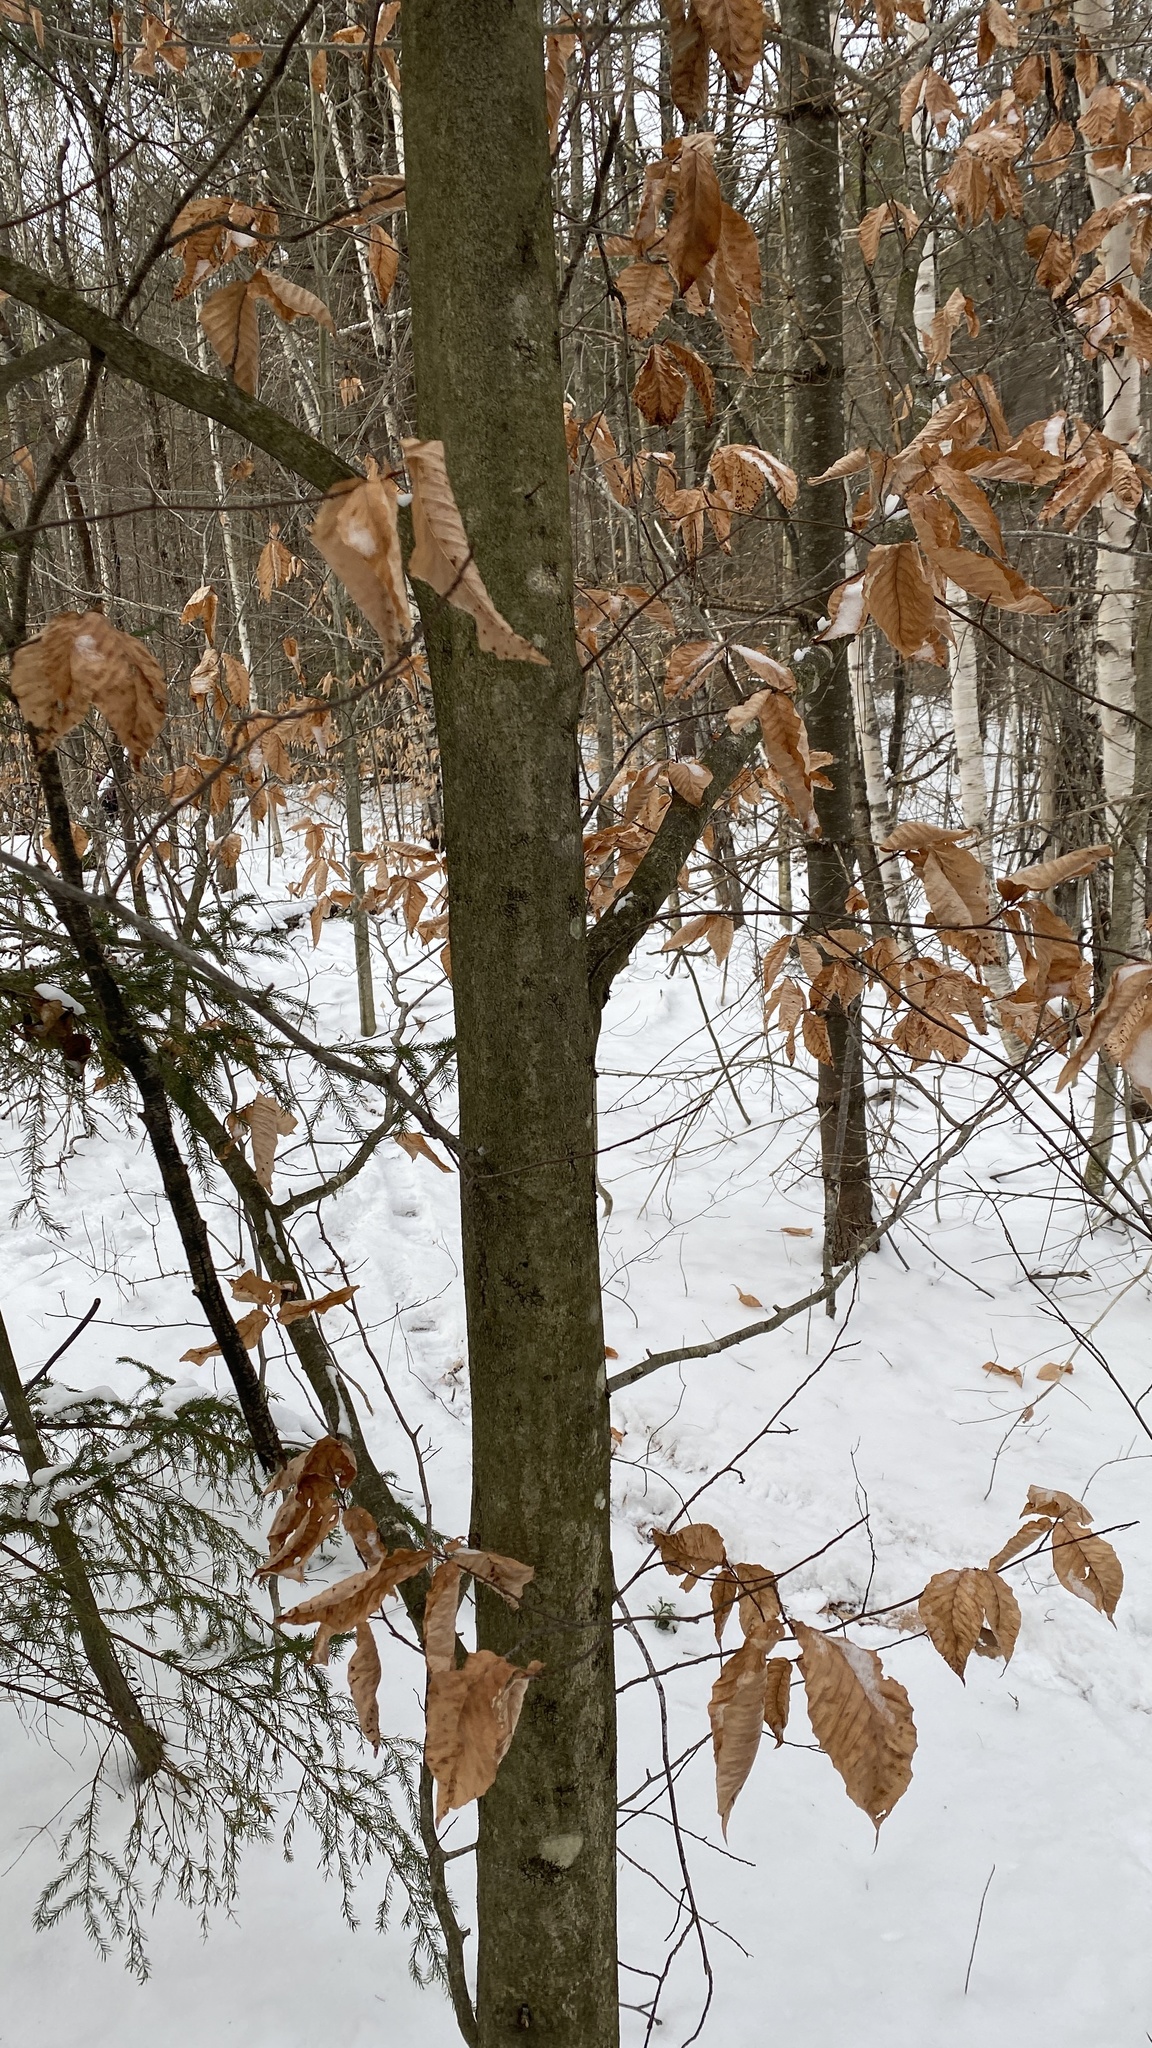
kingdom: Plantae
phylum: Tracheophyta
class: Magnoliopsida
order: Fagales
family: Fagaceae
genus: Fagus
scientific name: Fagus grandifolia
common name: American beech
